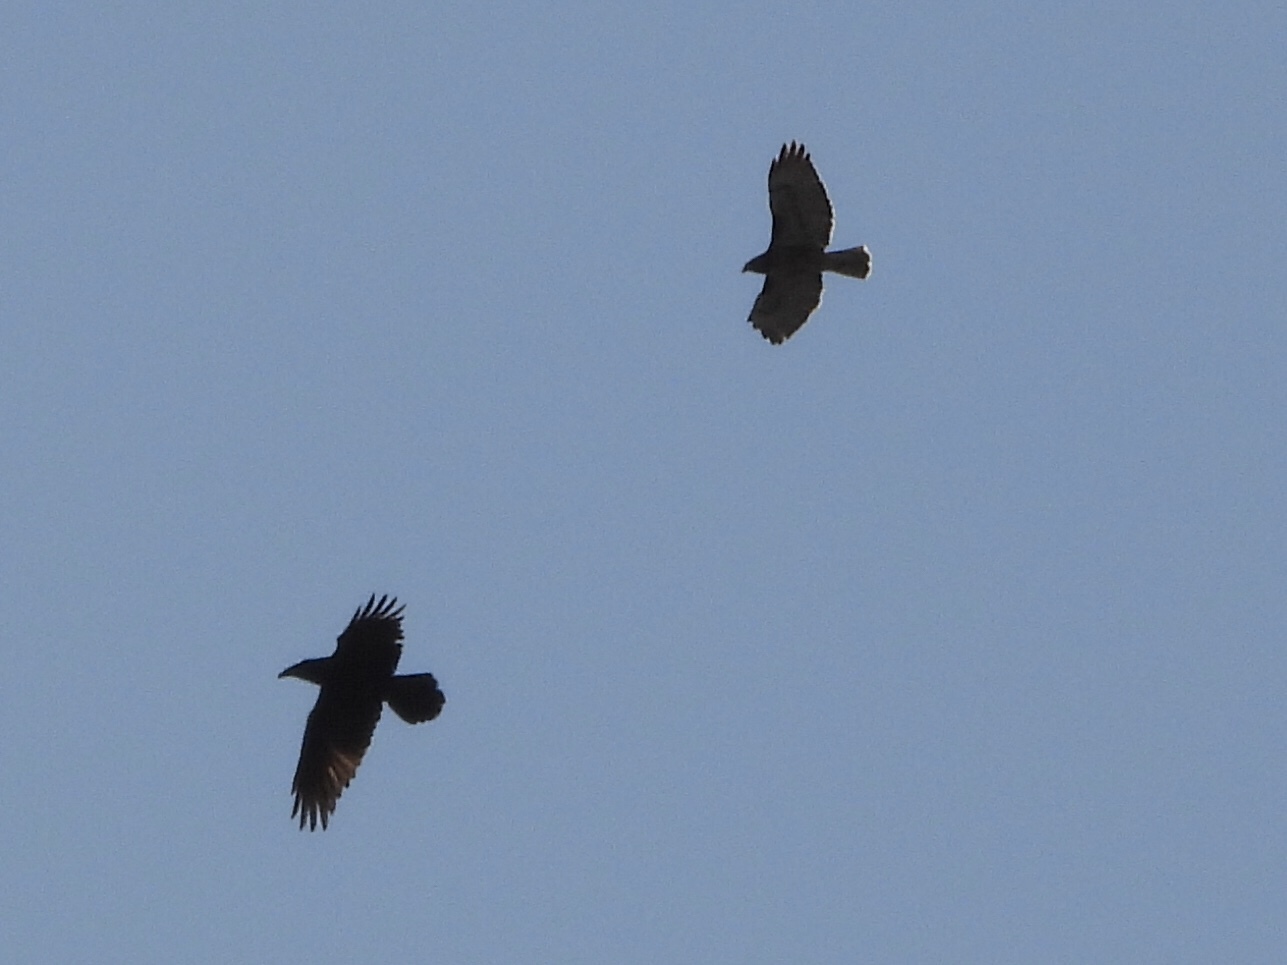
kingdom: Animalia
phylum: Chordata
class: Aves
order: Passeriformes
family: Corvidae
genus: Corvus
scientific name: Corvus corax
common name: Common raven
